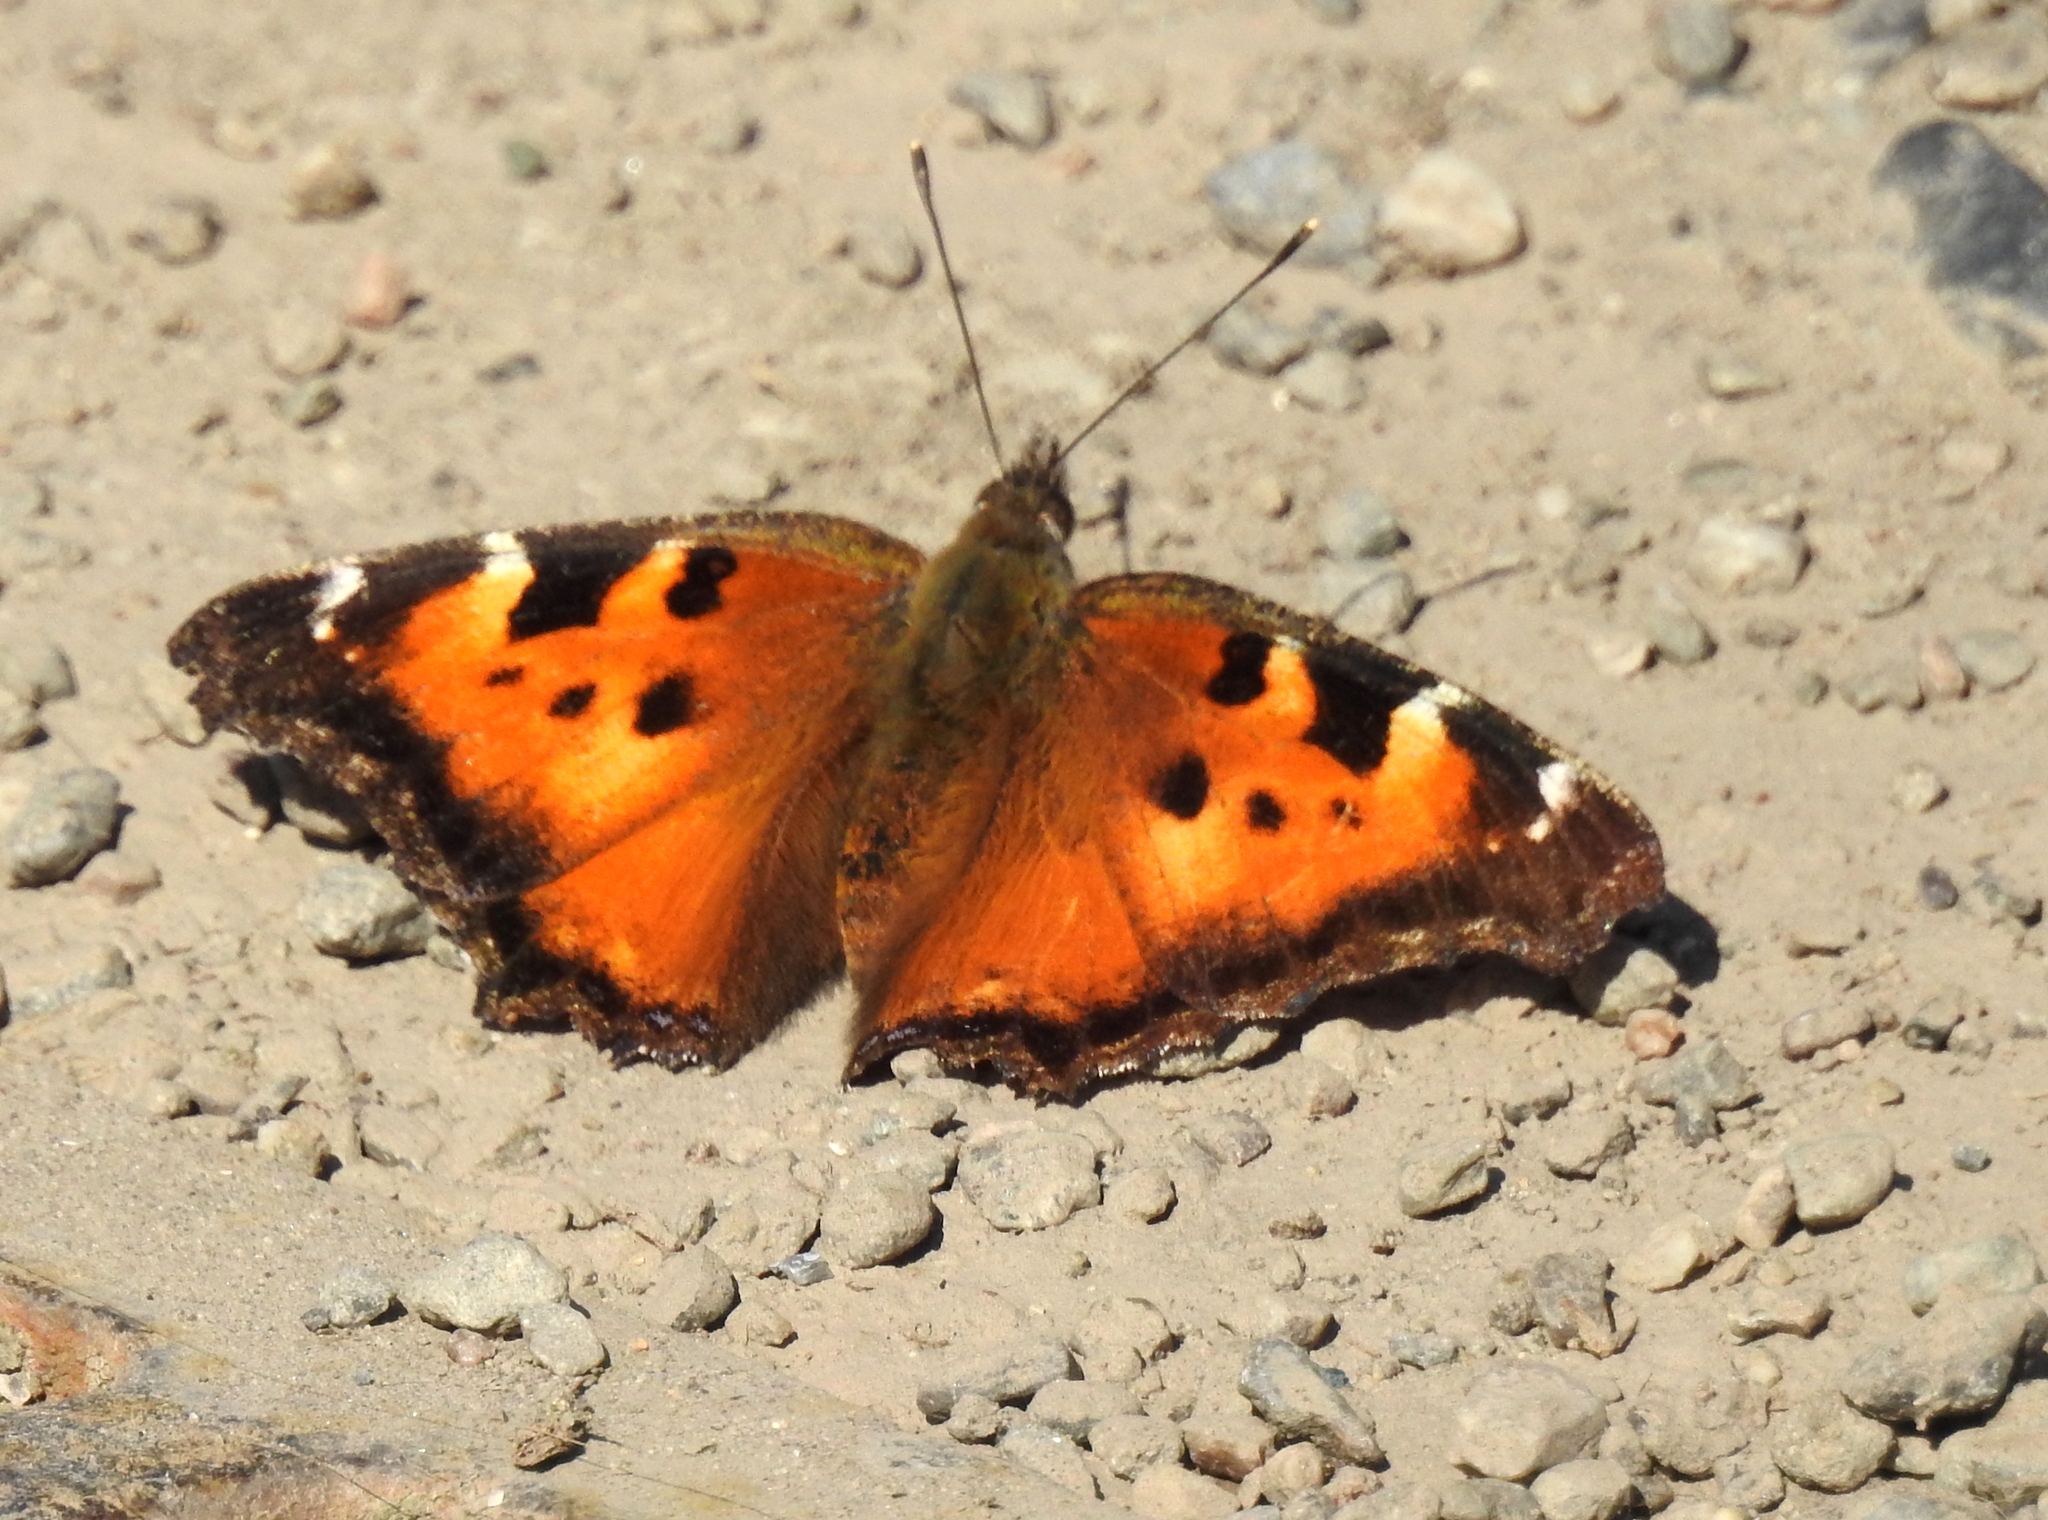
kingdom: Animalia
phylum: Arthropoda
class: Insecta
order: Lepidoptera
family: Nymphalidae
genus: Nymphalis
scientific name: Nymphalis californica
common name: California tortoiseshell
